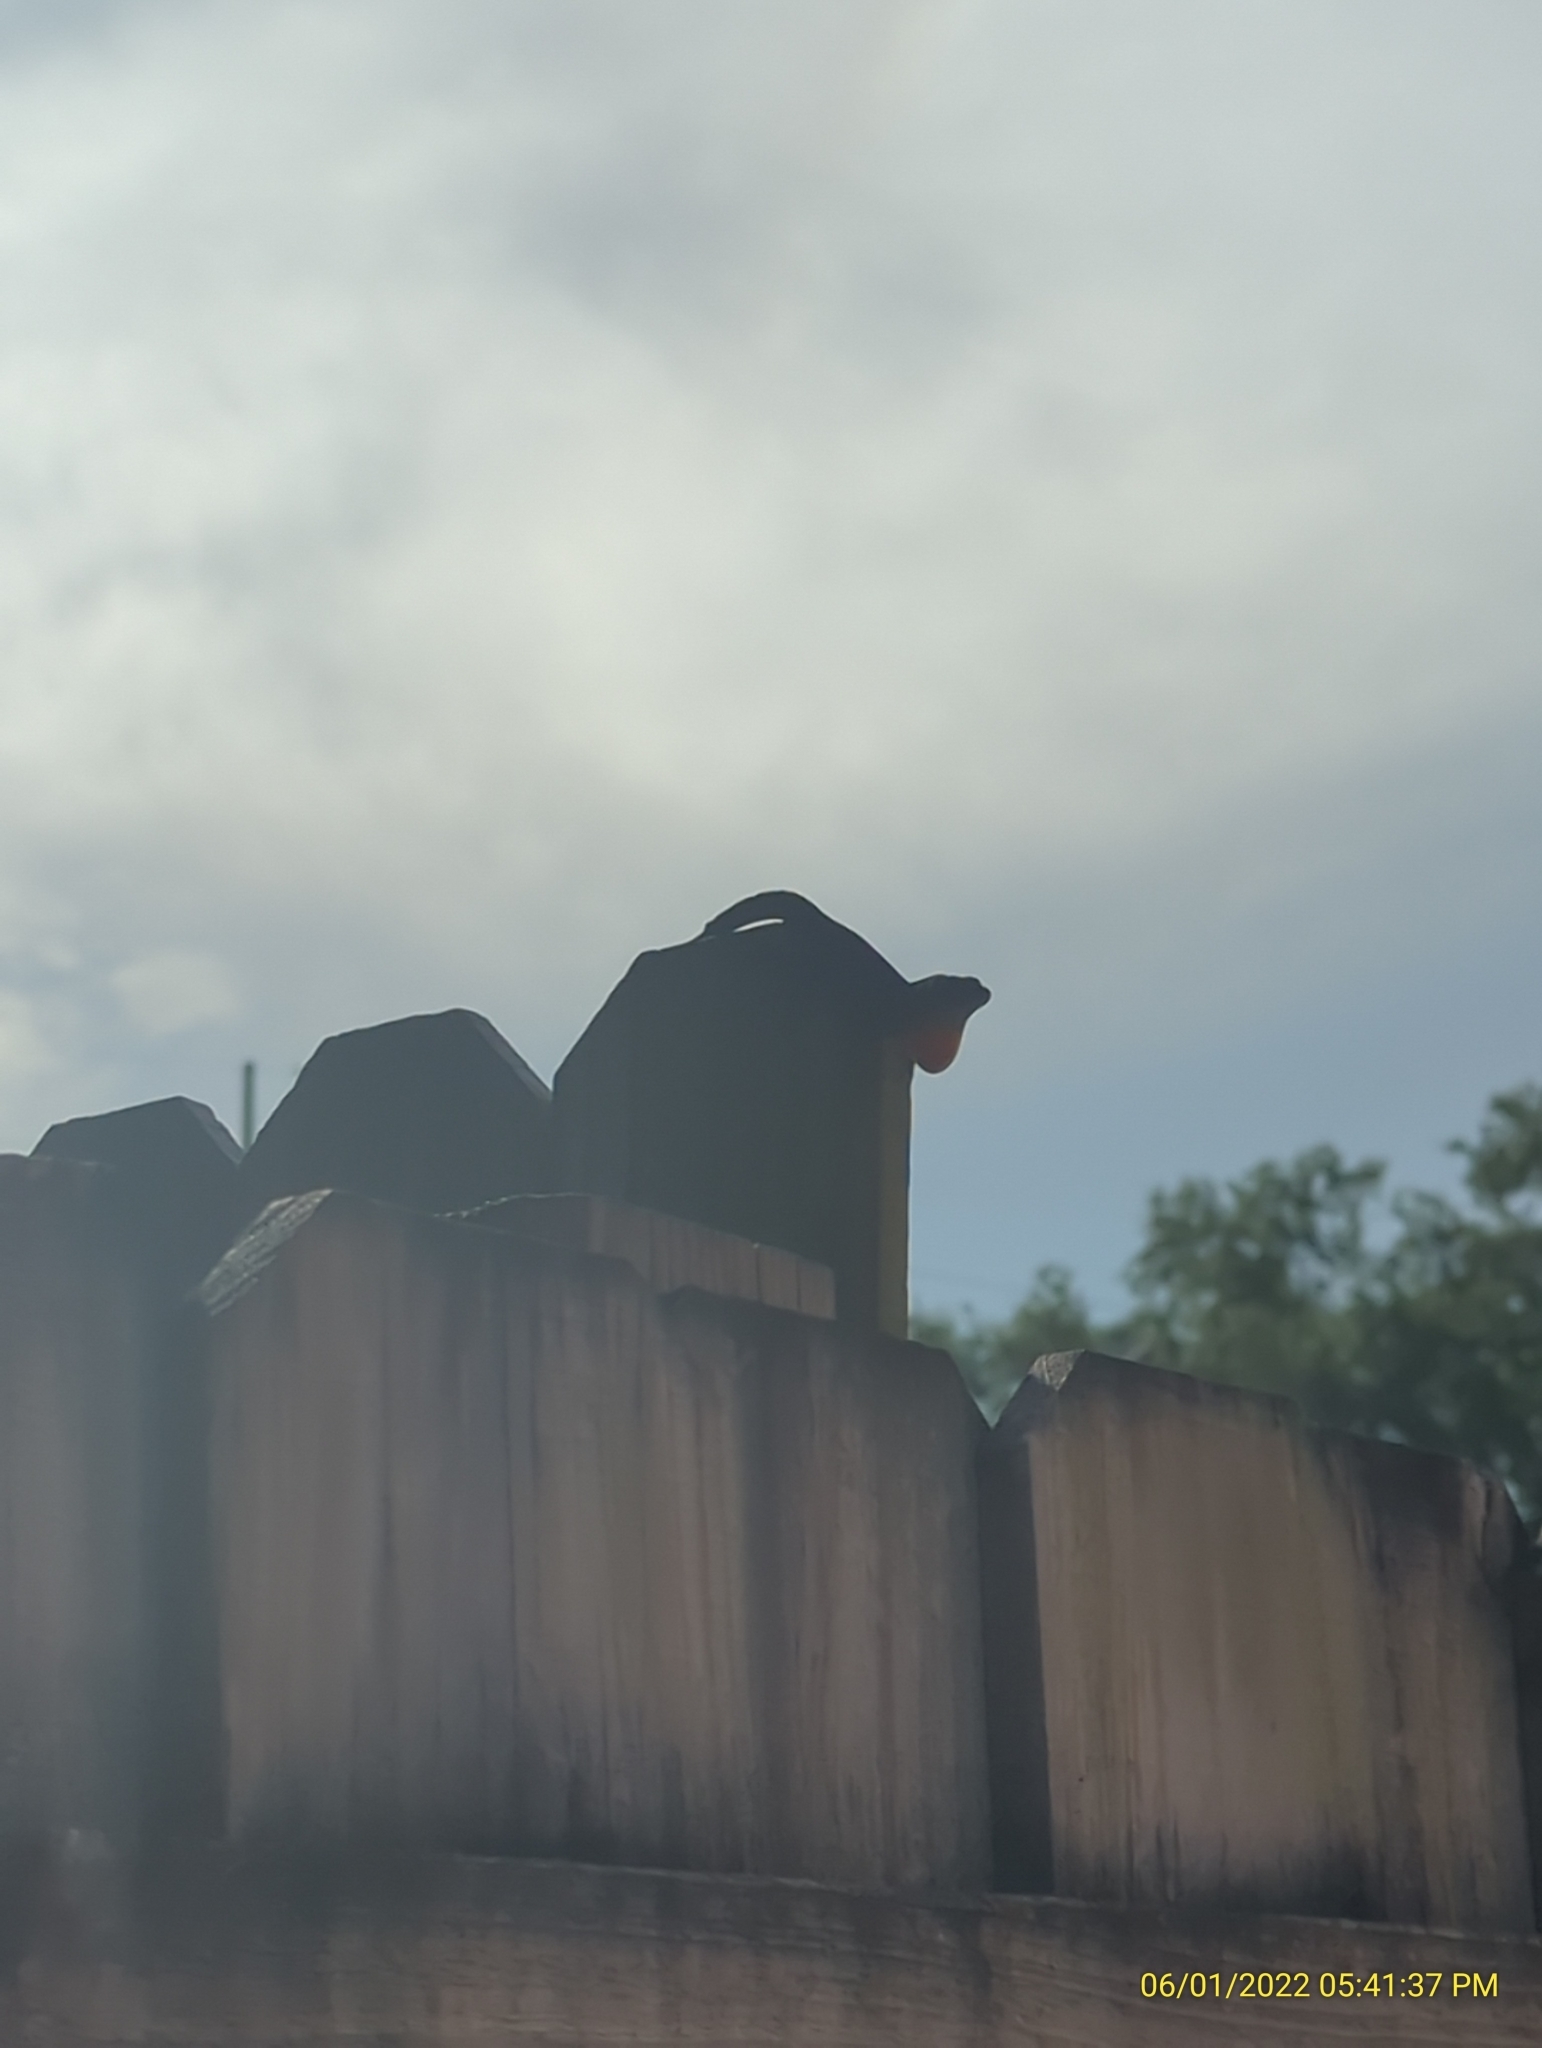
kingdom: Animalia
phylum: Chordata
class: Squamata
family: Dactyloidae
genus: Anolis
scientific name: Anolis sagrei
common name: Brown anole
